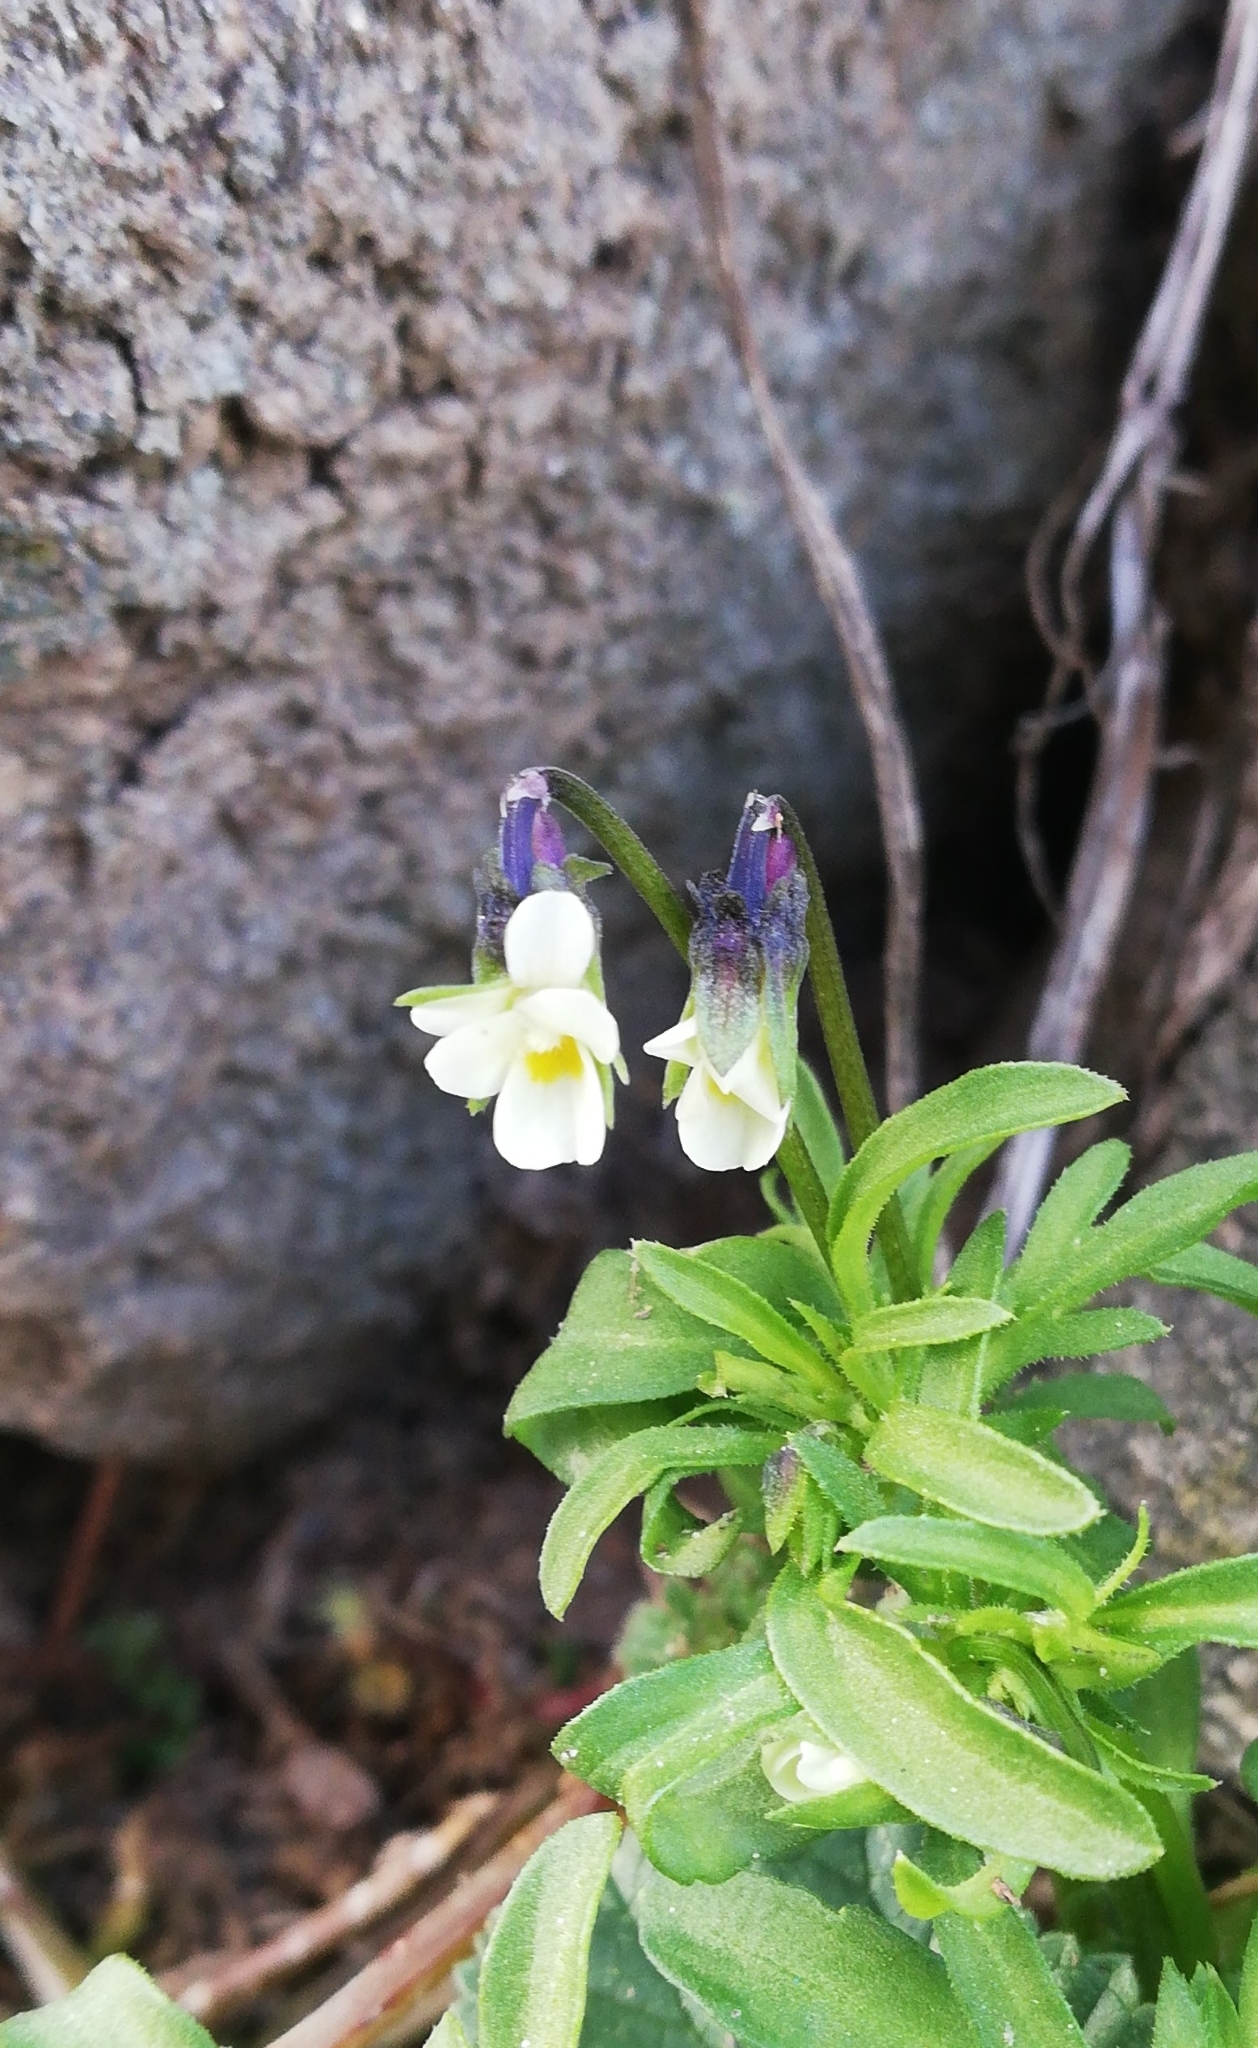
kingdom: Plantae
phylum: Tracheophyta
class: Magnoliopsida
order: Malpighiales
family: Violaceae
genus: Viola
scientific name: Viola kitaibeliana
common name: Dwarf pansy
